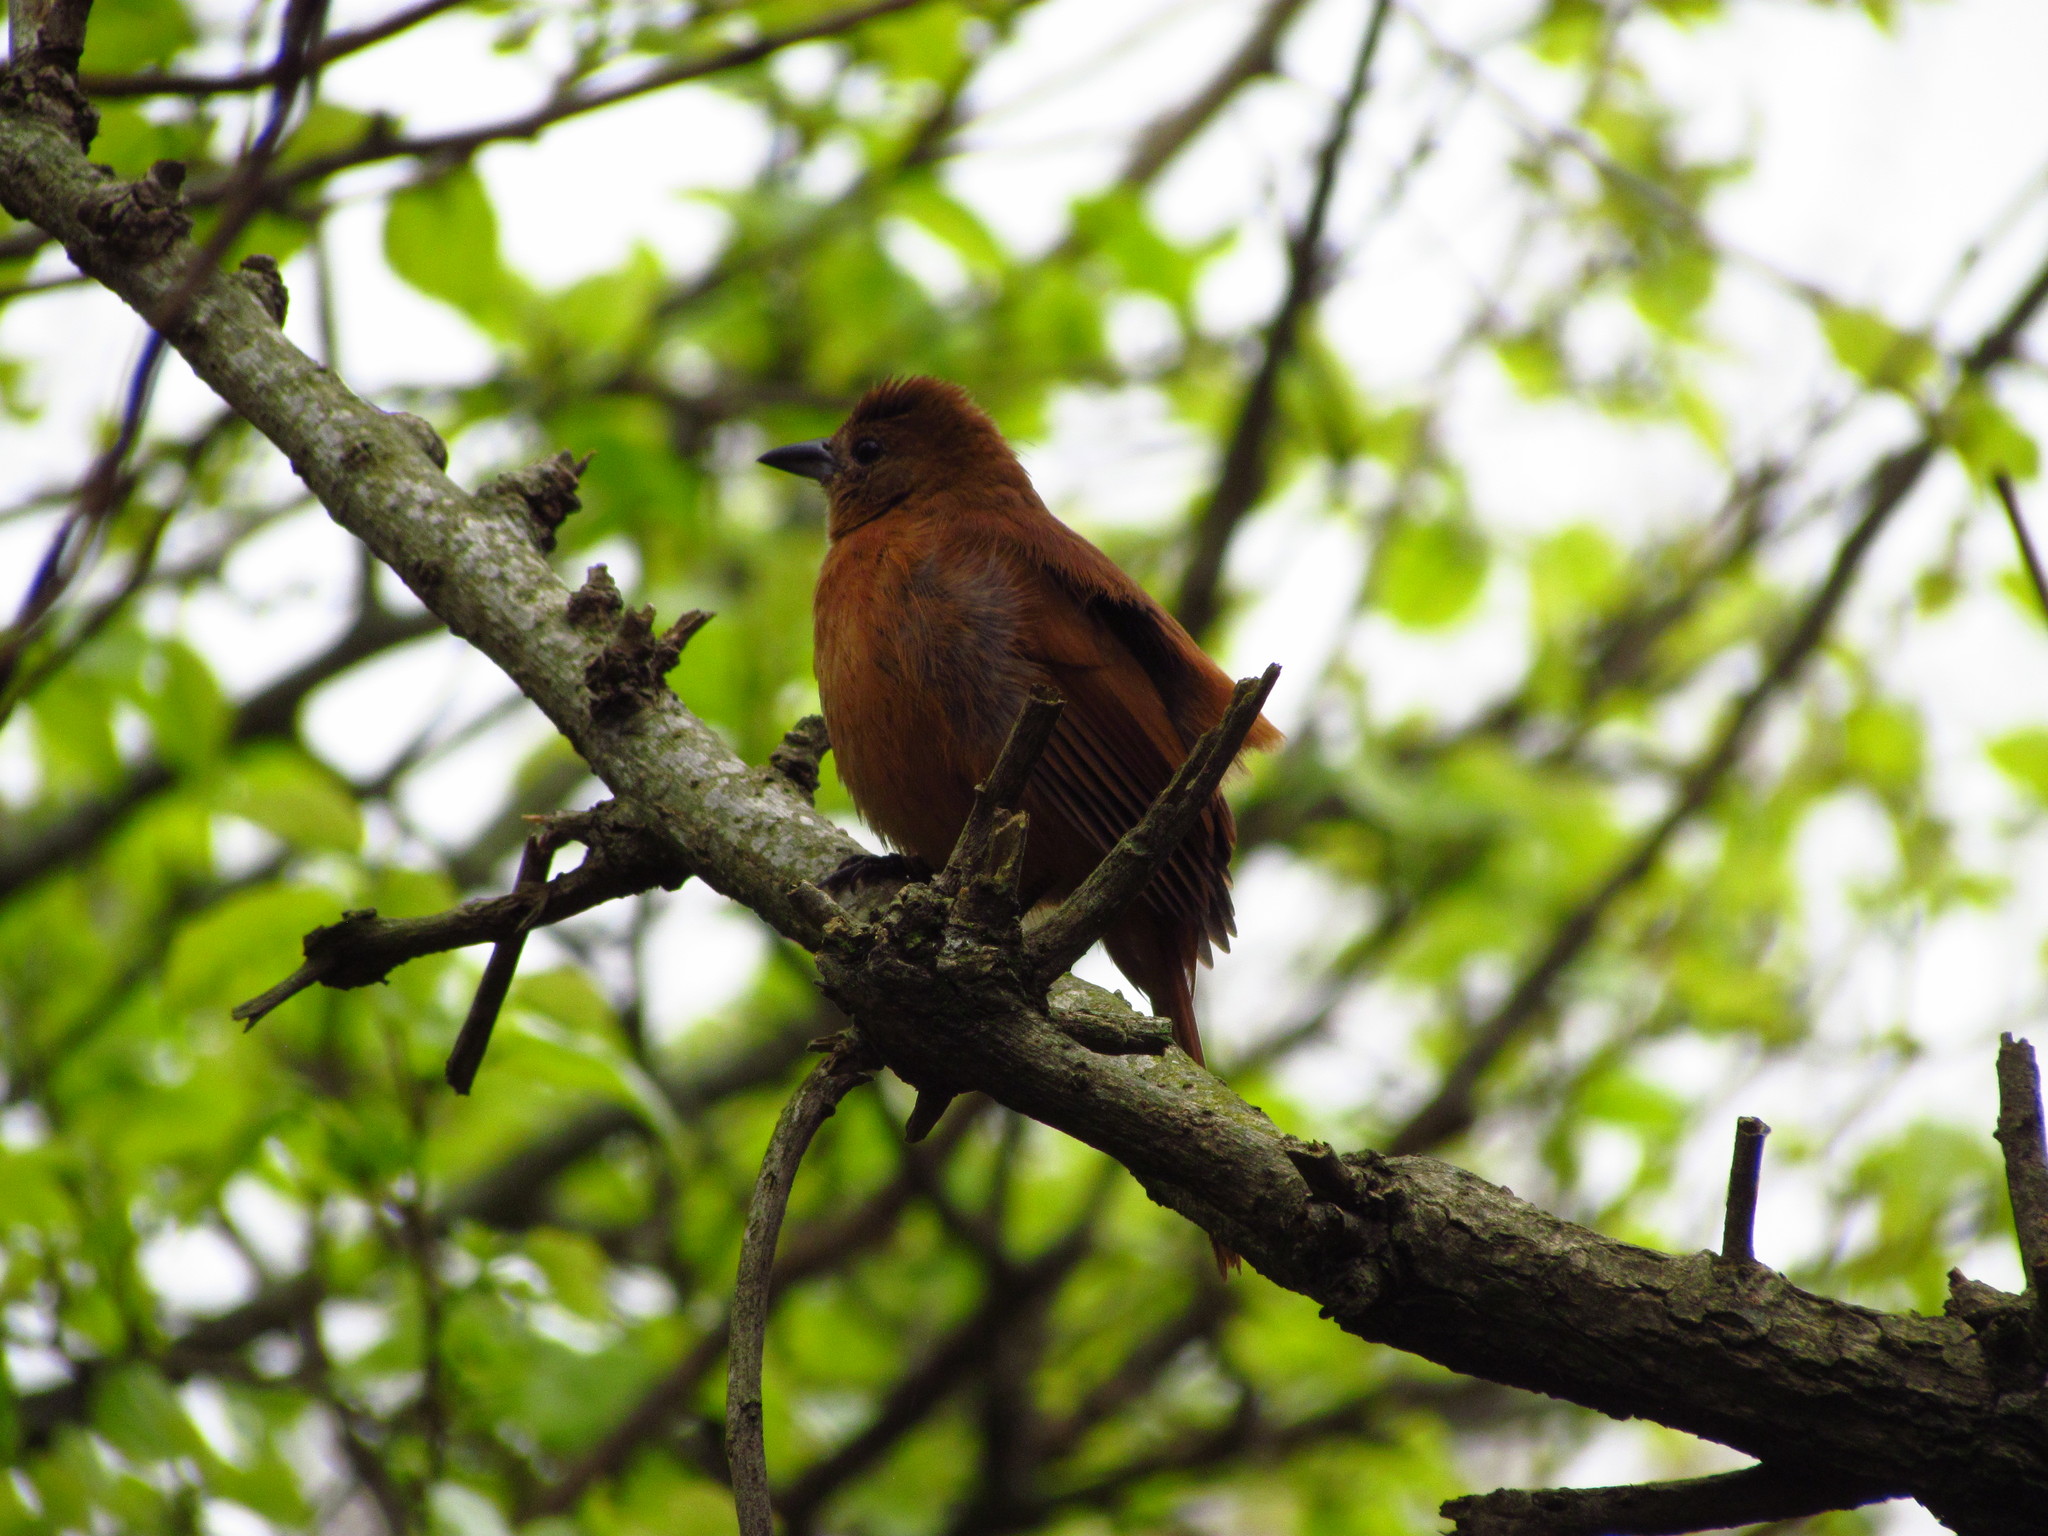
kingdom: Animalia
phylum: Chordata
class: Aves
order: Passeriformes
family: Thraupidae
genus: Tachyphonus
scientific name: Tachyphonus rufus
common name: White-lined tanager
